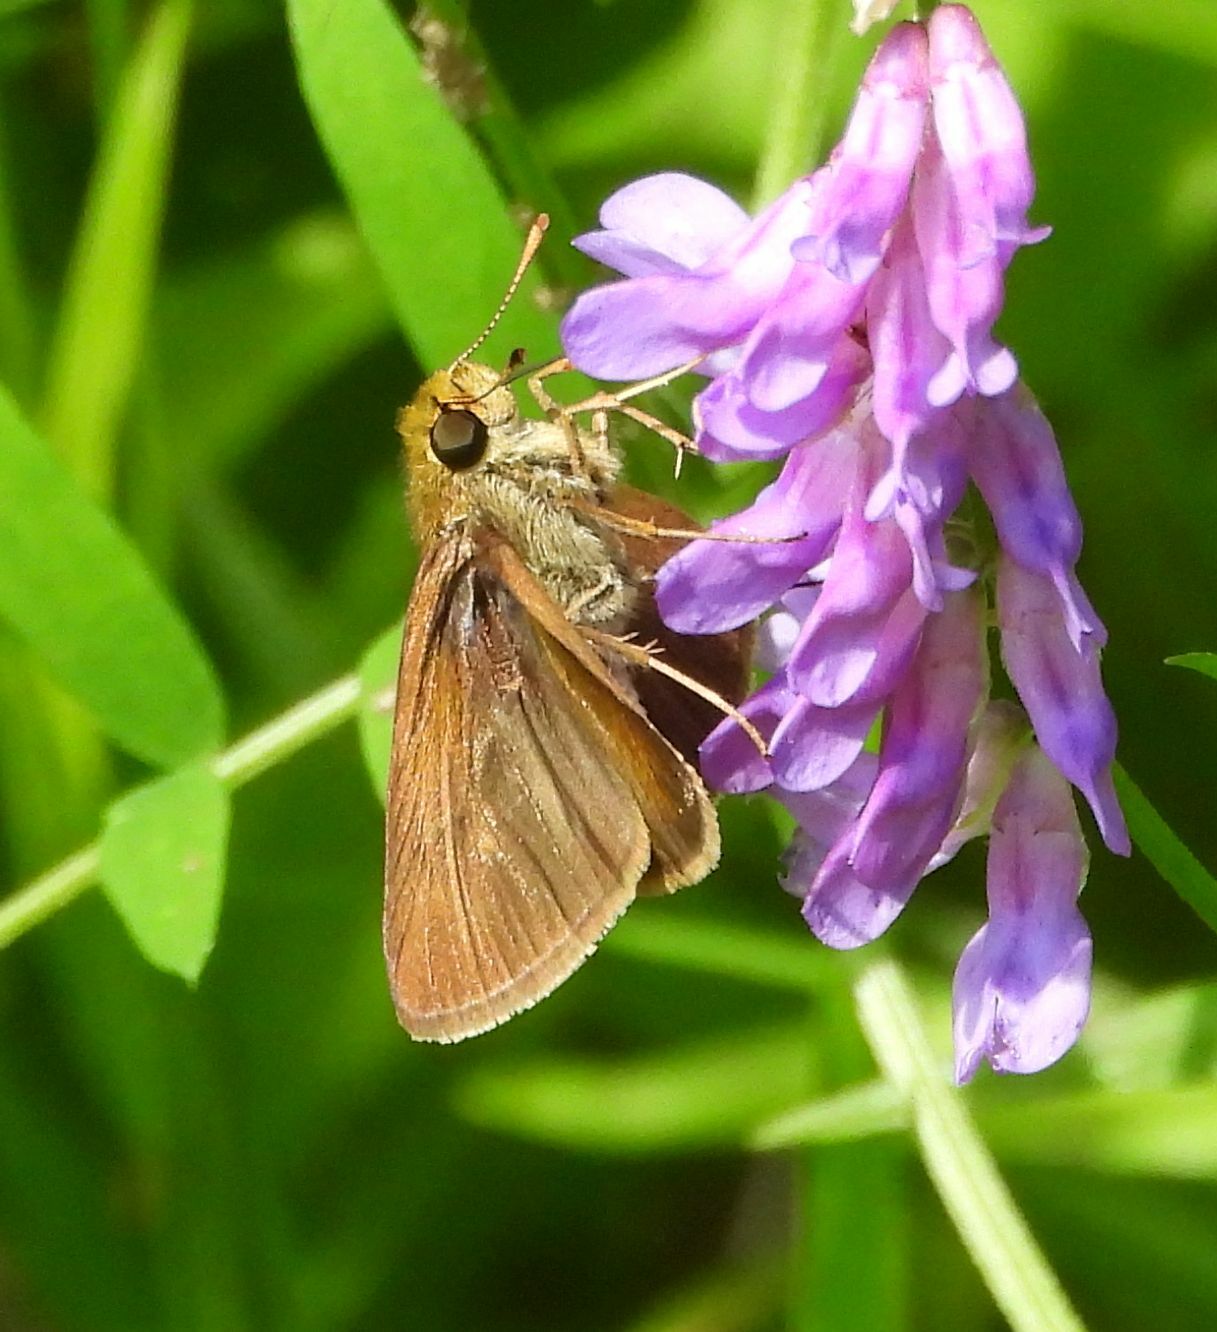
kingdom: Animalia
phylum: Arthropoda
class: Insecta
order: Lepidoptera
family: Hesperiidae
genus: Euphyes
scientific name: Euphyes vestris
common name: Dun skipper
